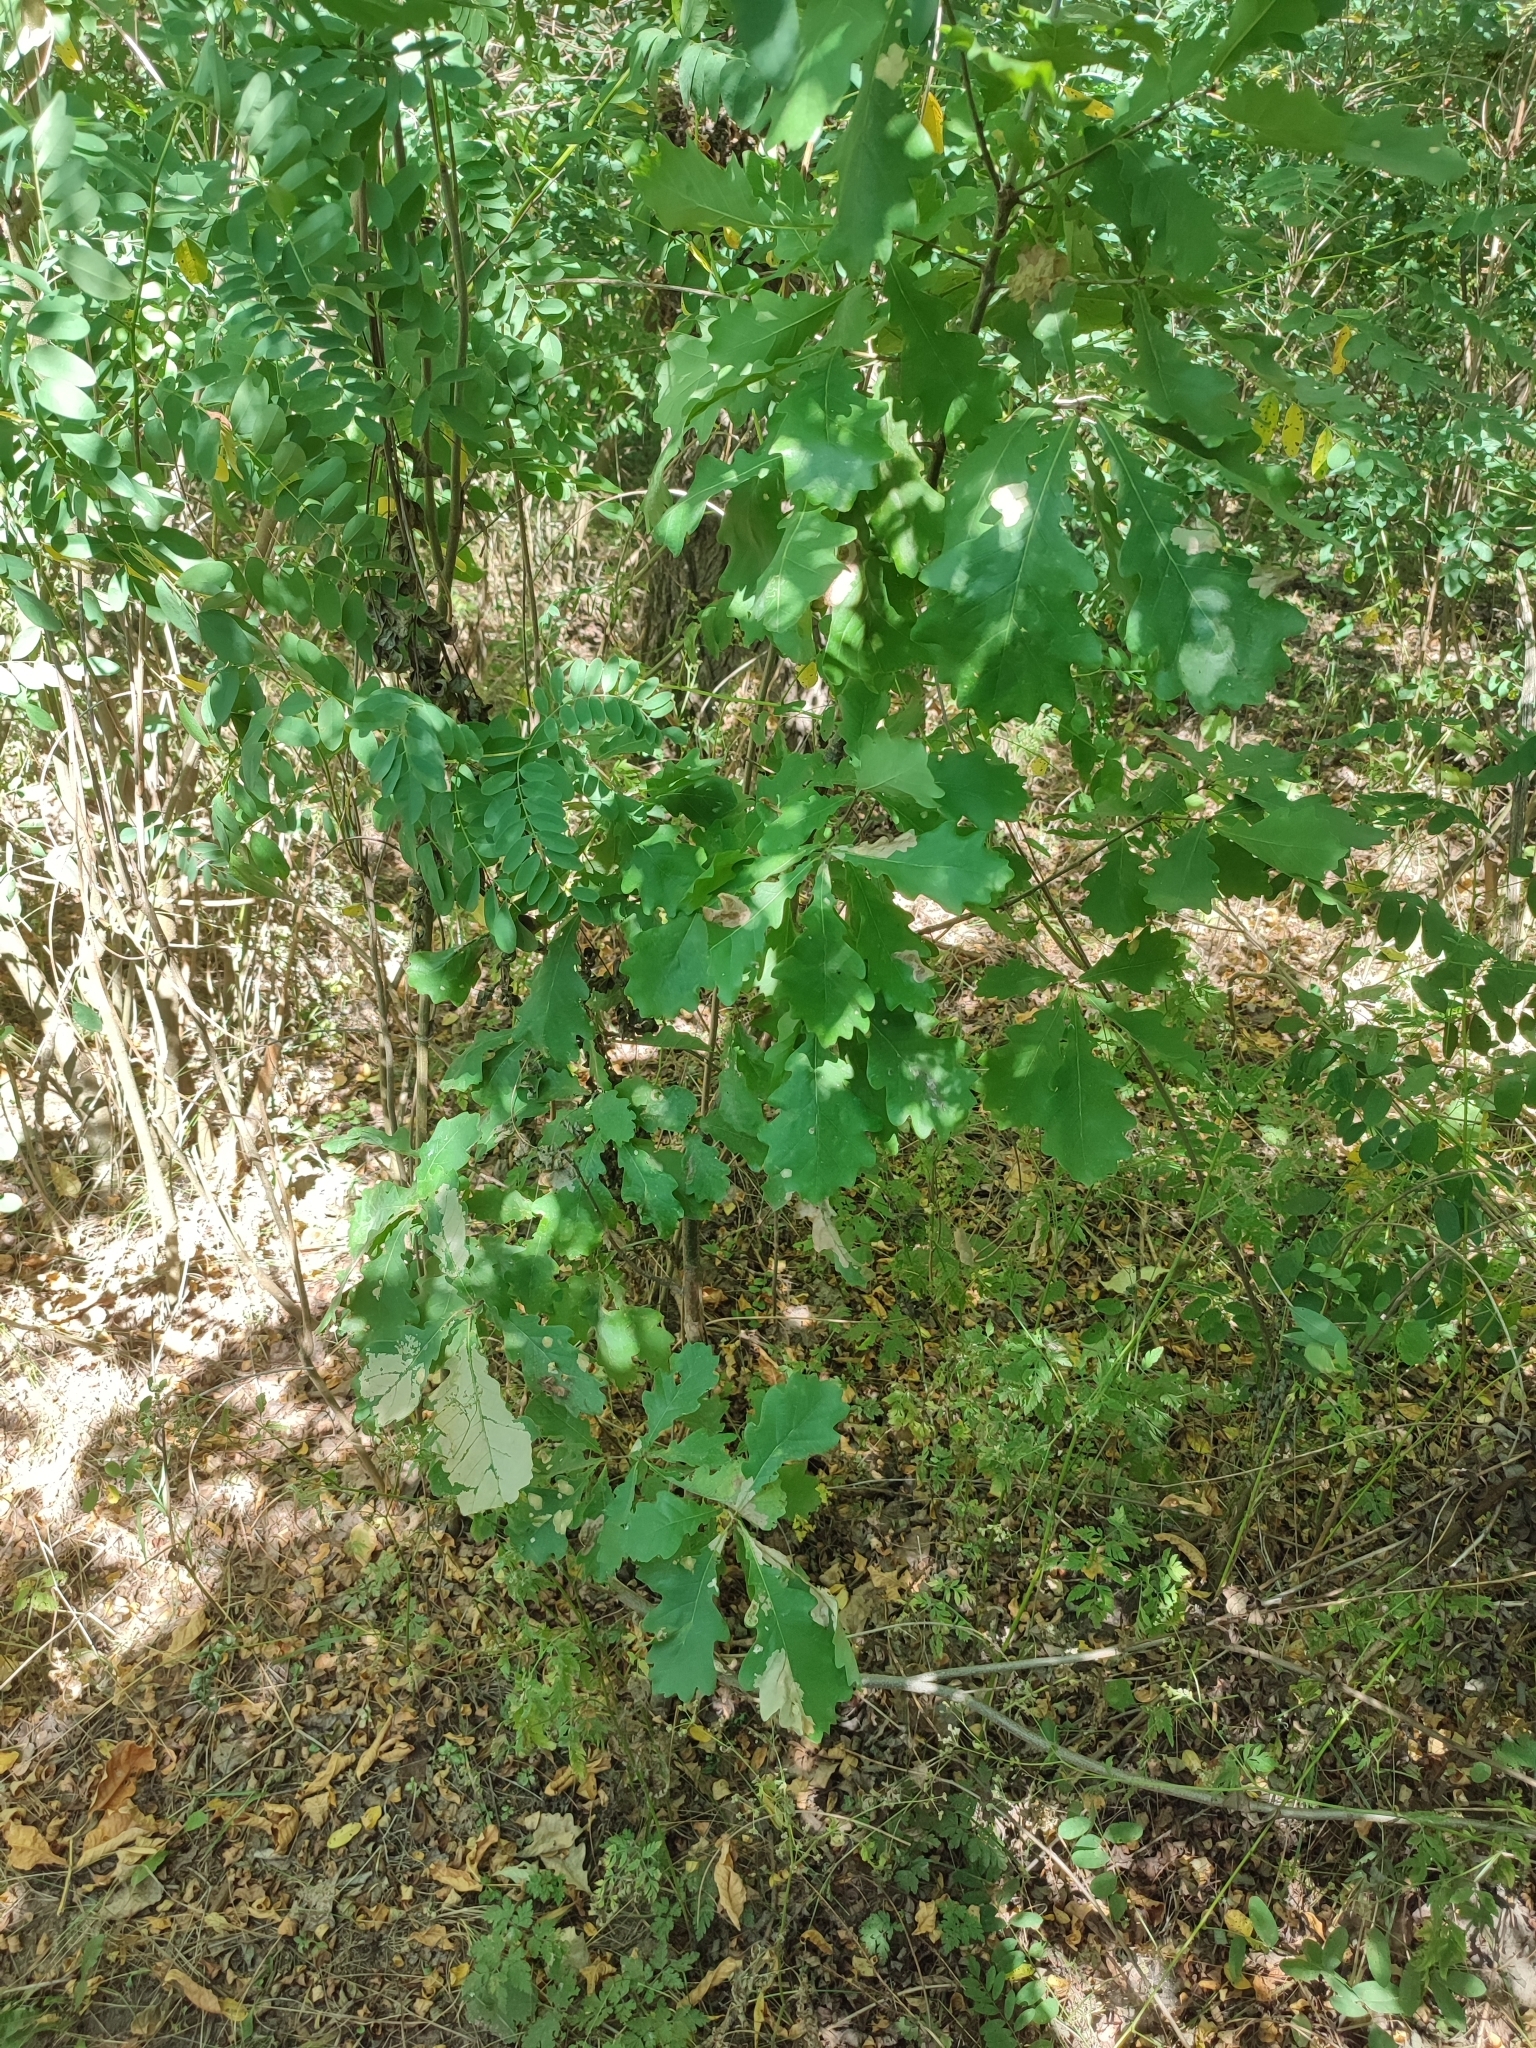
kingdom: Plantae
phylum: Tracheophyta
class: Magnoliopsida
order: Fagales
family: Fagaceae
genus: Quercus
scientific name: Quercus robur
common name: Pedunculate oak
